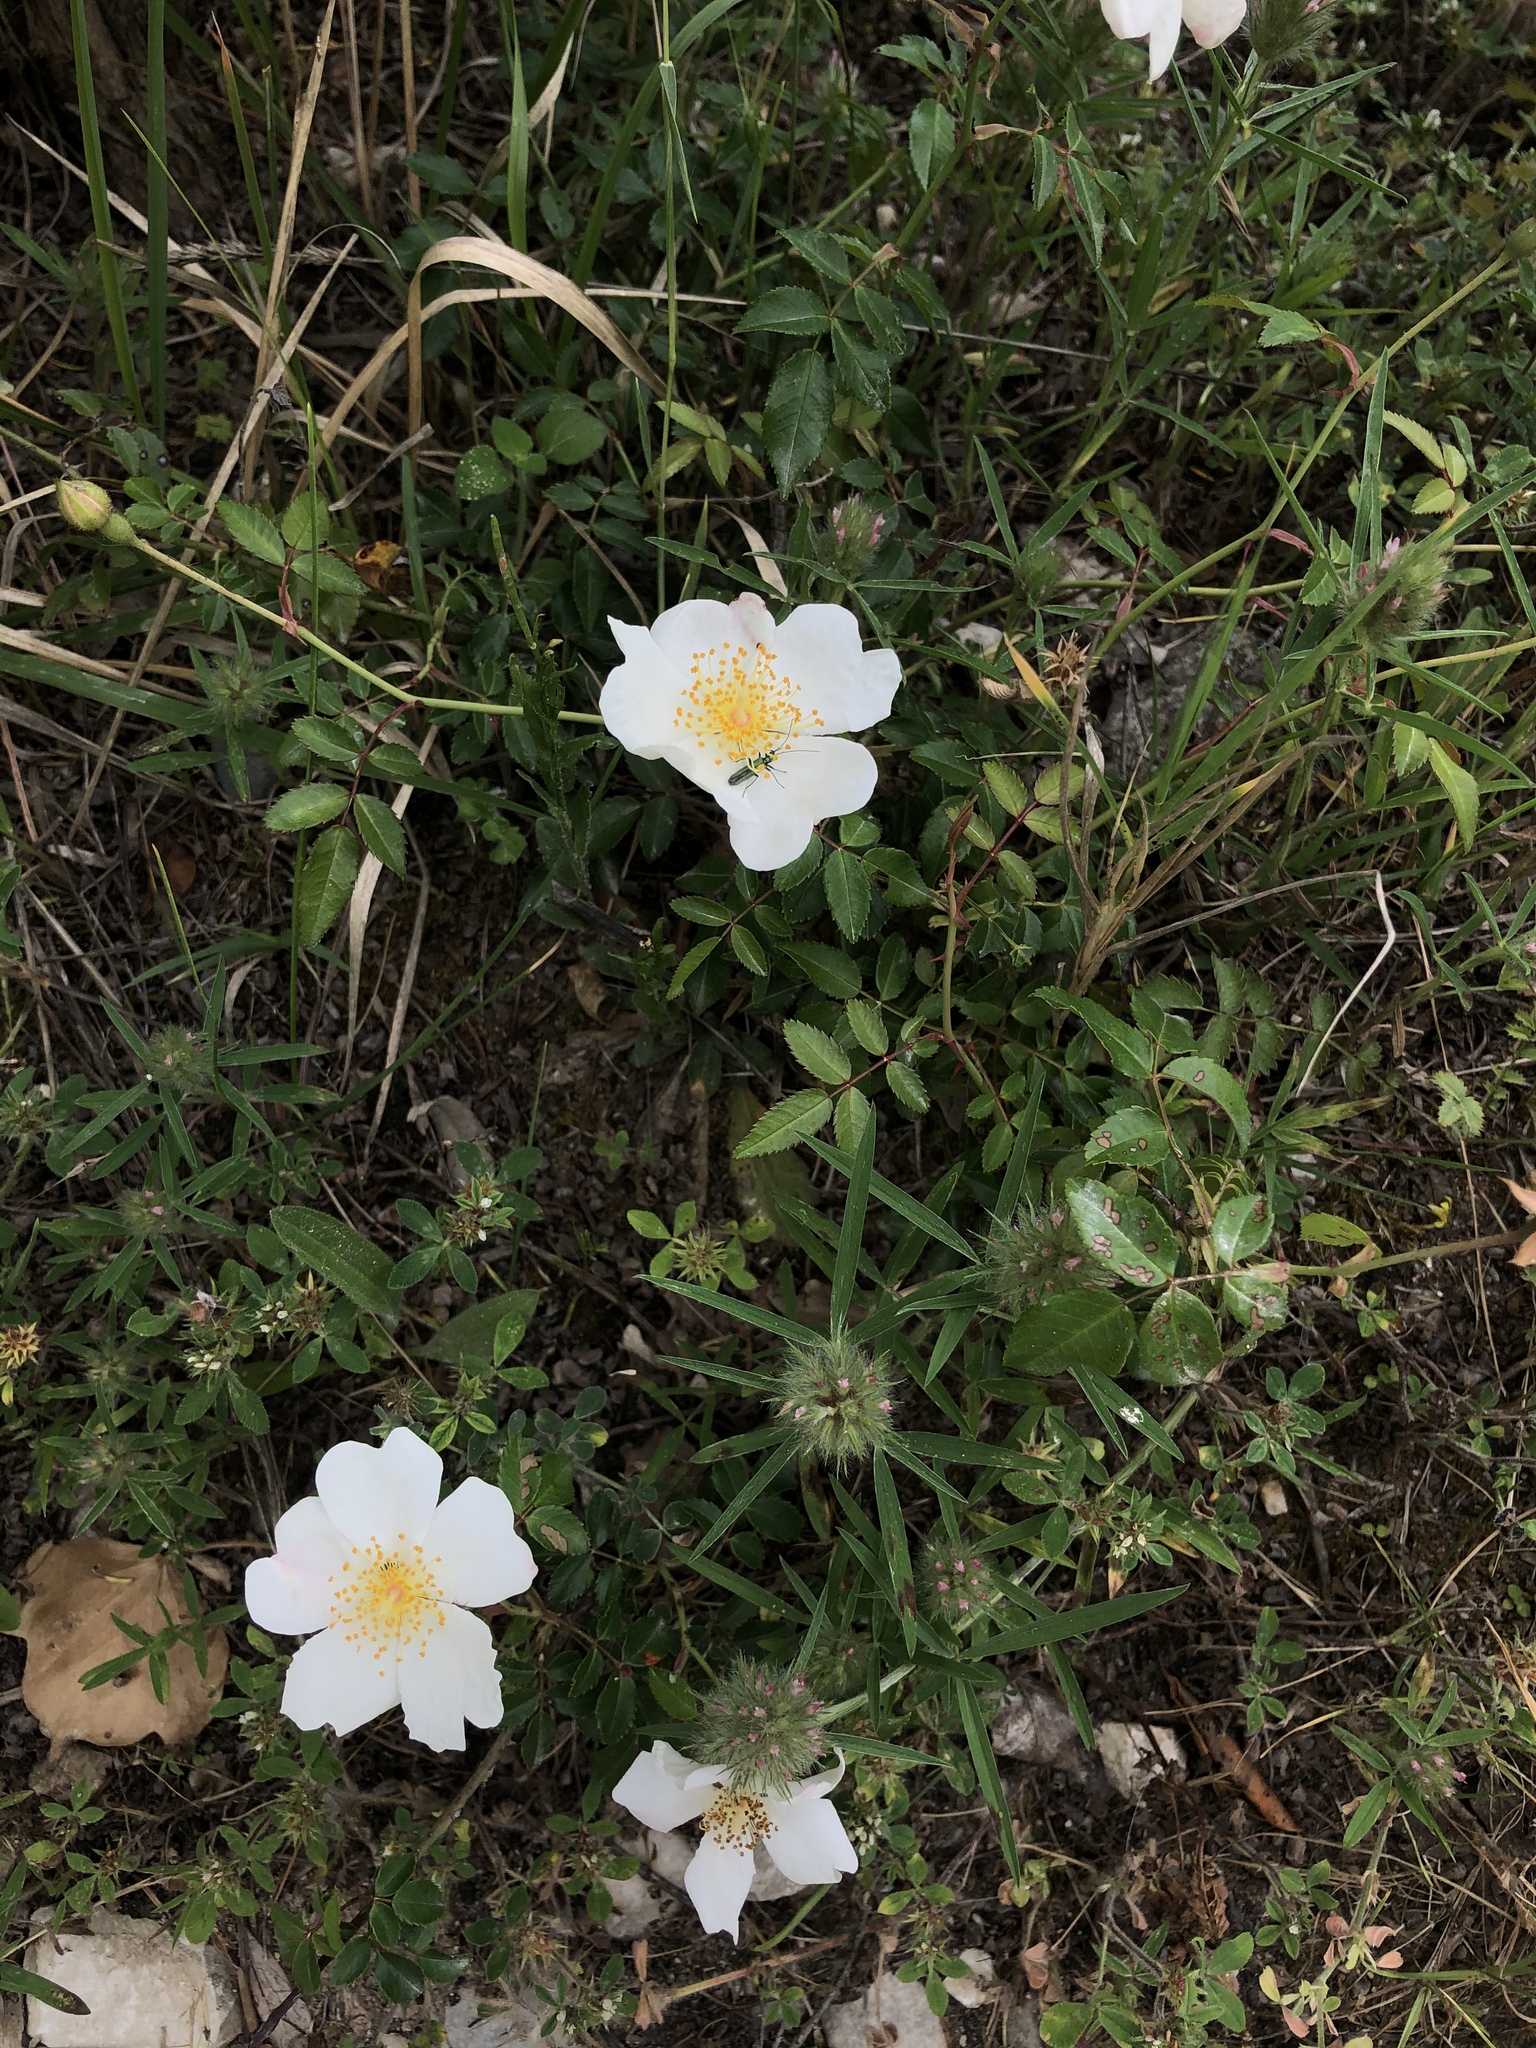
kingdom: Plantae
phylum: Tracheophyta
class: Magnoliopsida
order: Rosales
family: Rosaceae
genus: Rosa
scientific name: Rosa sempervirens
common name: Evergreen rose
